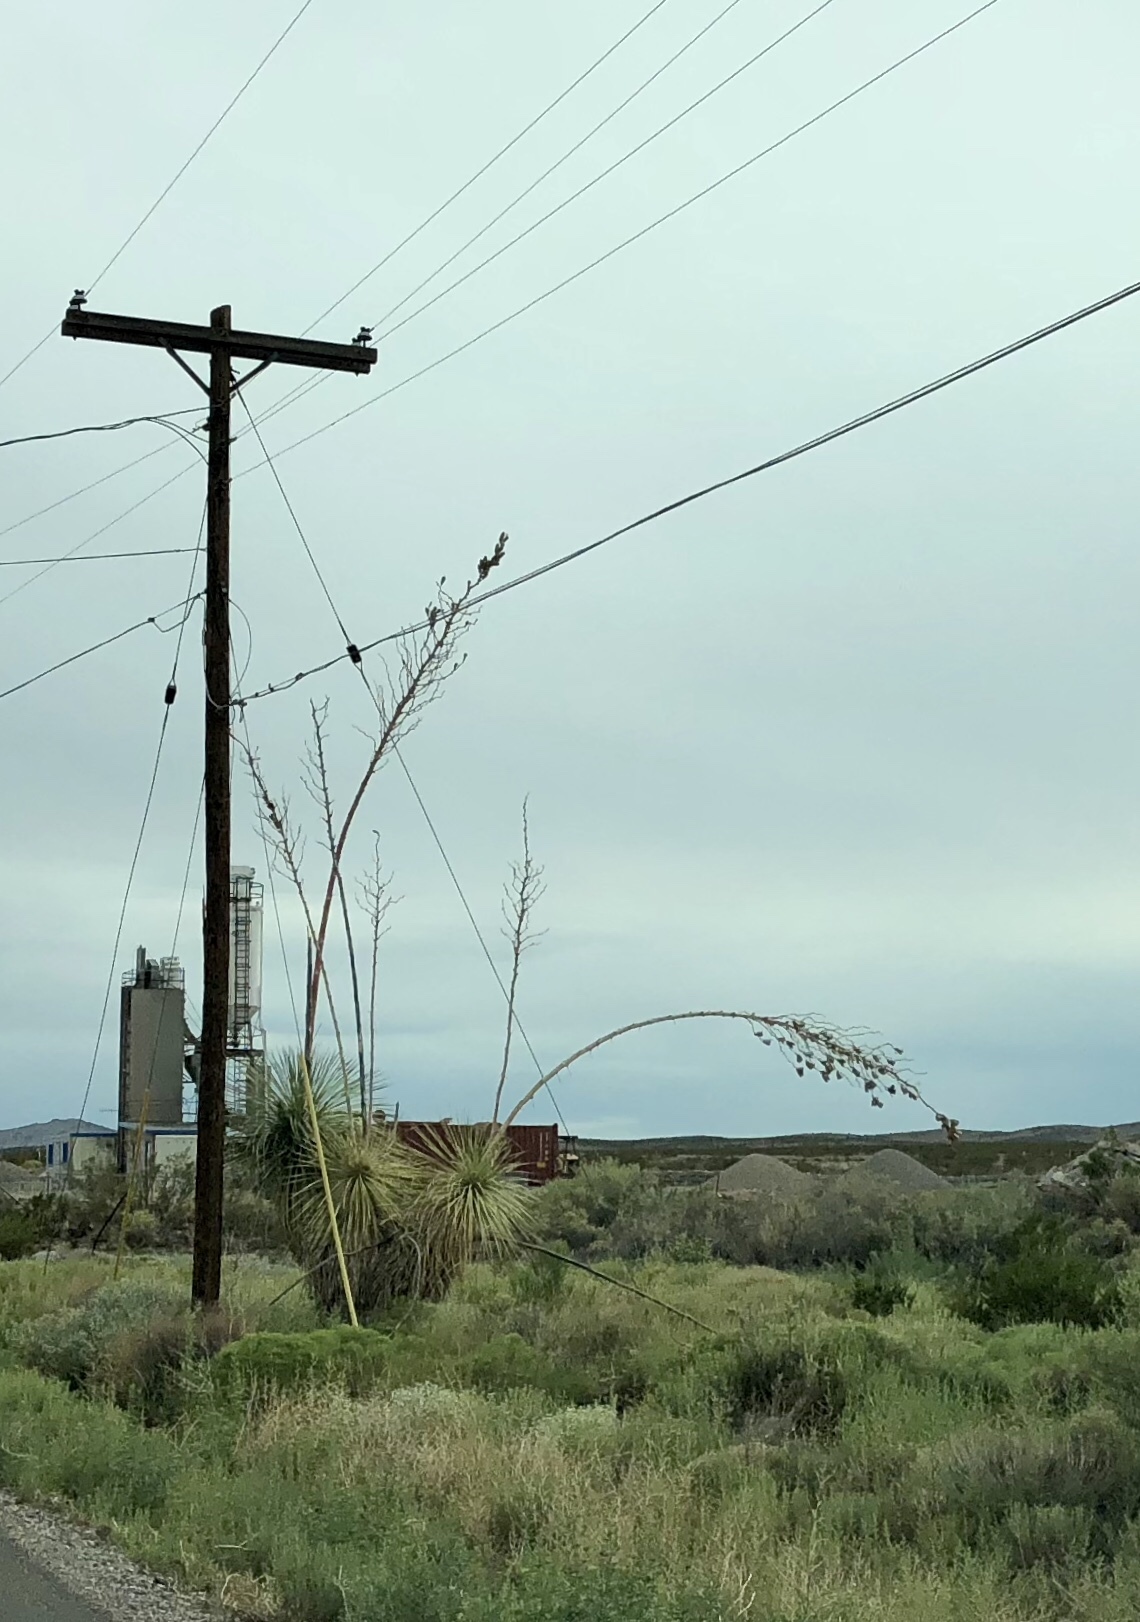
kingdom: Plantae
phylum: Tracheophyta
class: Liliopsida
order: Asparagales
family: Asparagaceae
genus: Yucca
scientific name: Yucca elata
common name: Palmella
